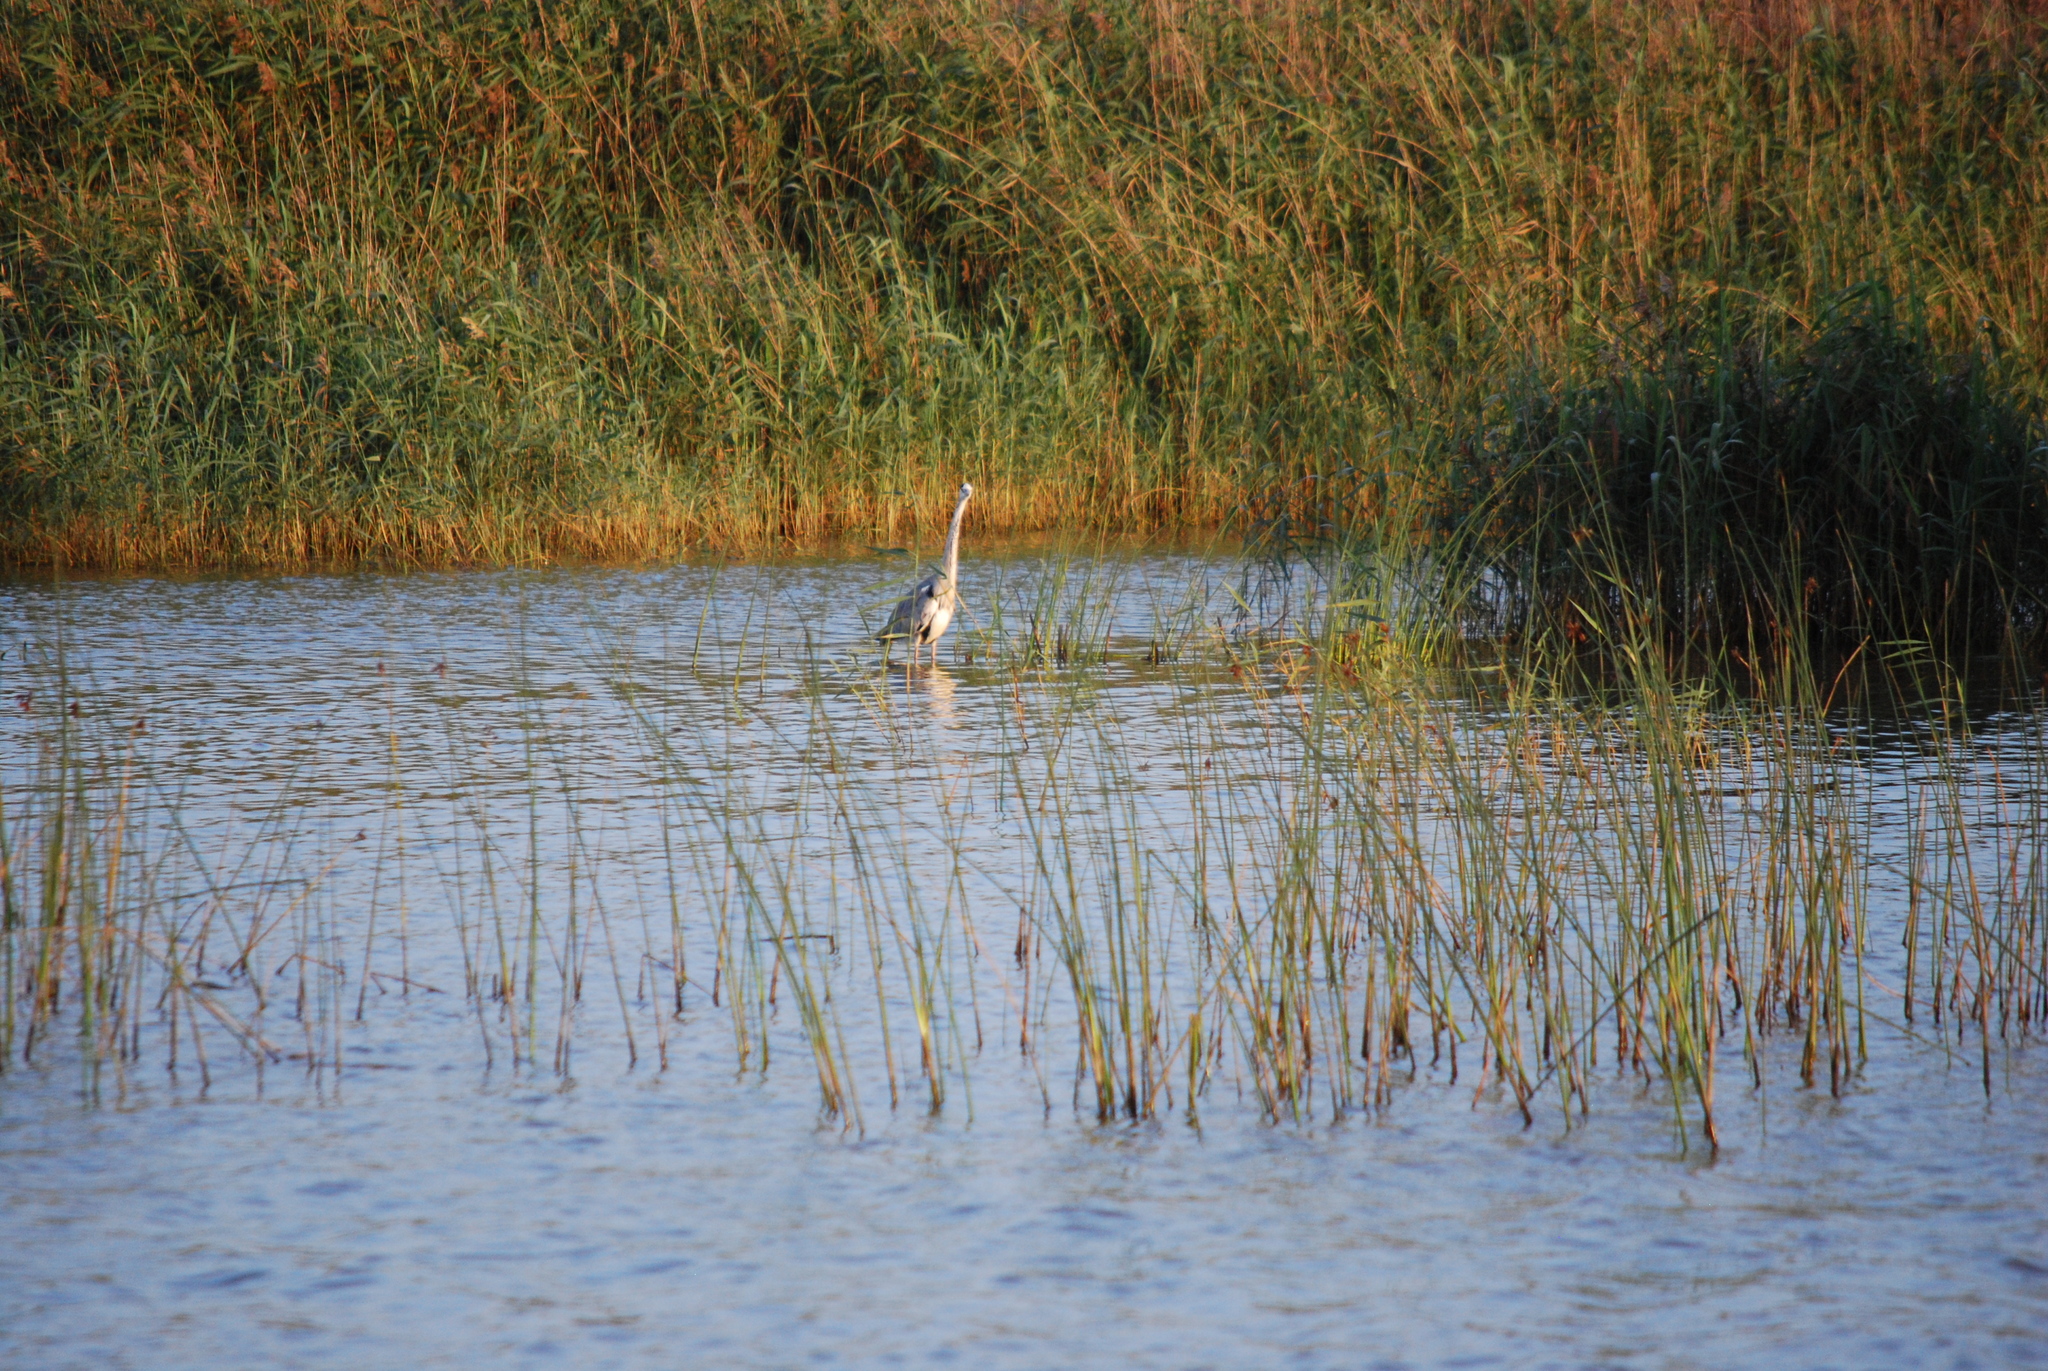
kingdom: Animalia
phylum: Chordata
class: Aves
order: Pelecaniformes
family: Ardeidae
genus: Ardea
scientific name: Ardea cinerea
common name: Grey heron
